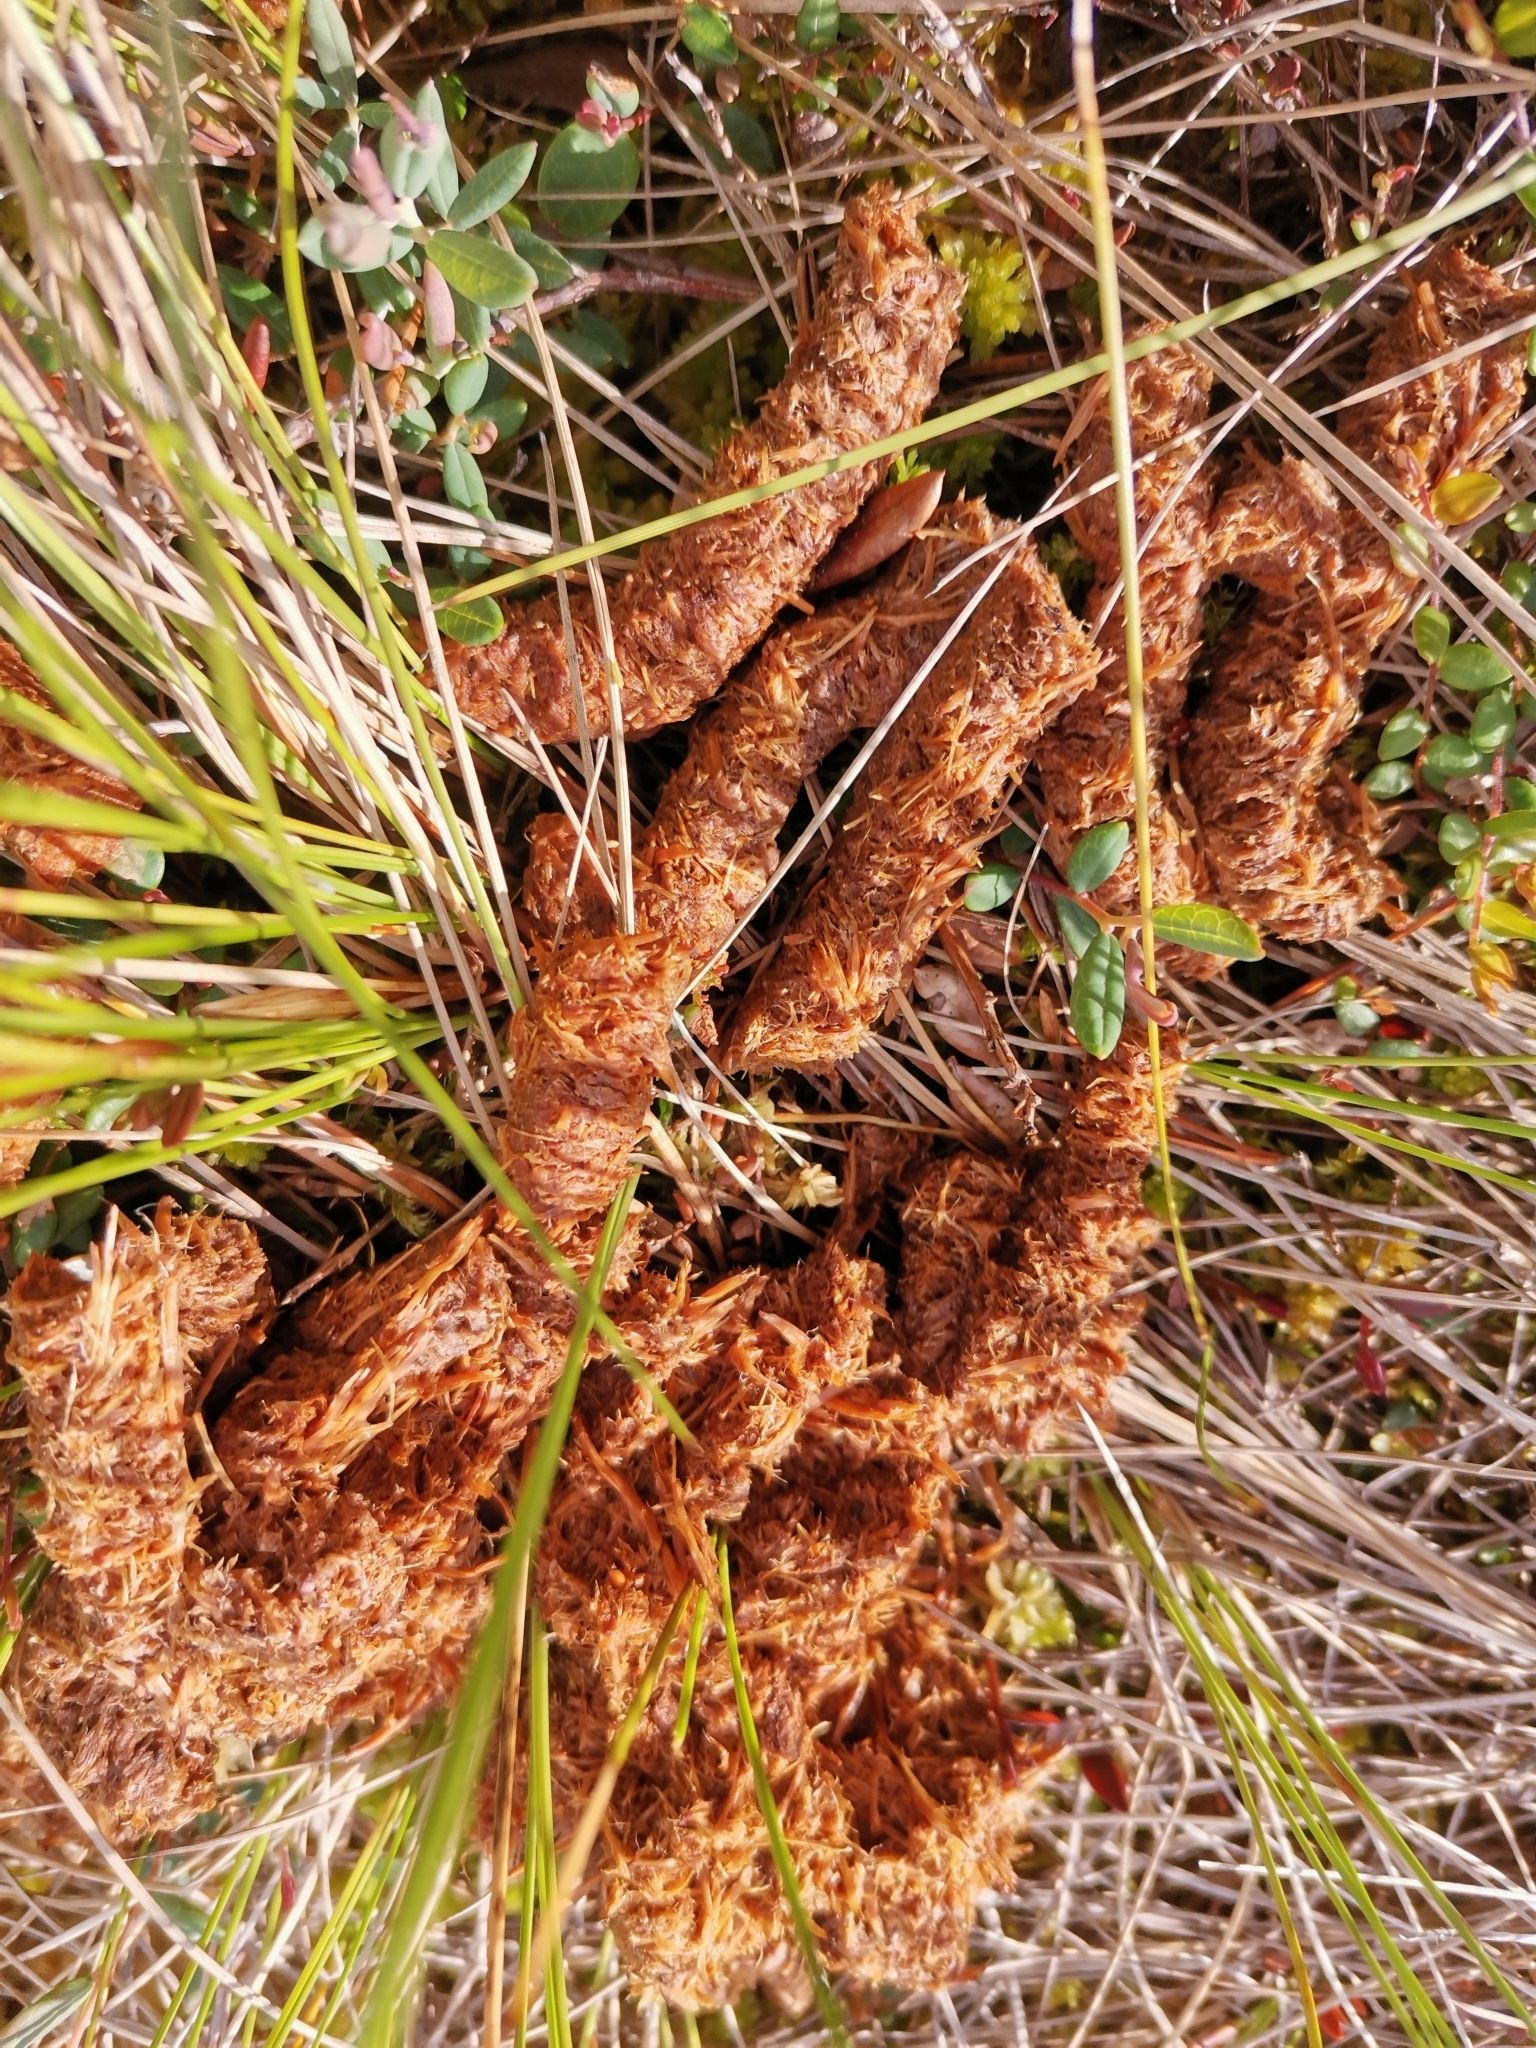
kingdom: Animalia
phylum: Chordata
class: Aves
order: Galliformes
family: Phasianidae
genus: Tetrao
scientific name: Tetrao urogallus
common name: Western capercaillie
